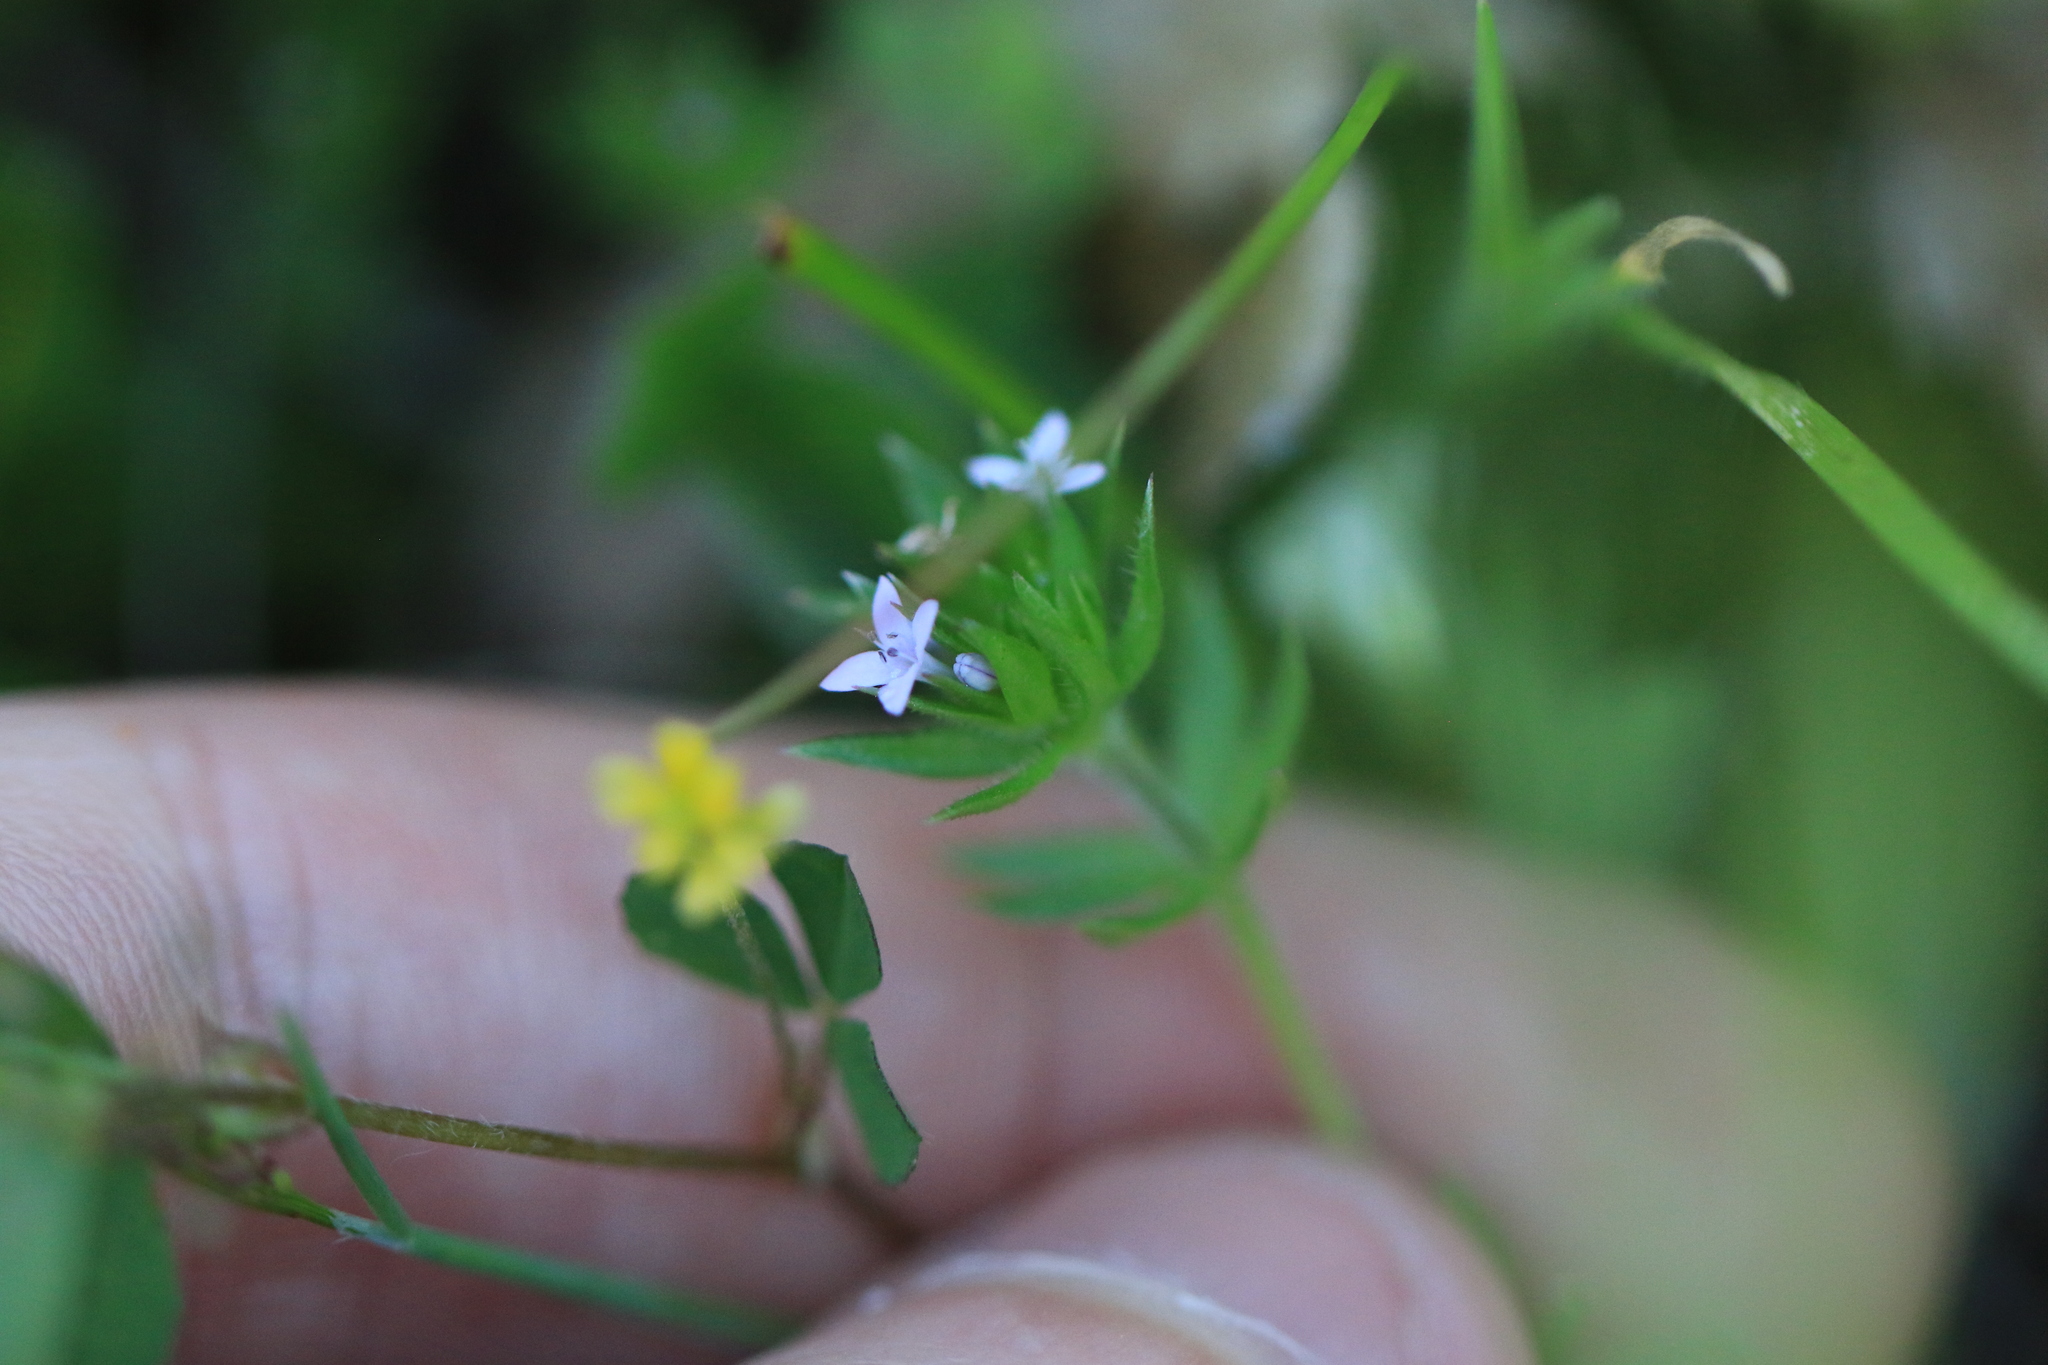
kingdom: Plantae
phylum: Tracheophyta
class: Magnoliopsida
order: Gentianales
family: Rubiaceae
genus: Sherardia
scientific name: Sherardia arvensis
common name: Field madder
